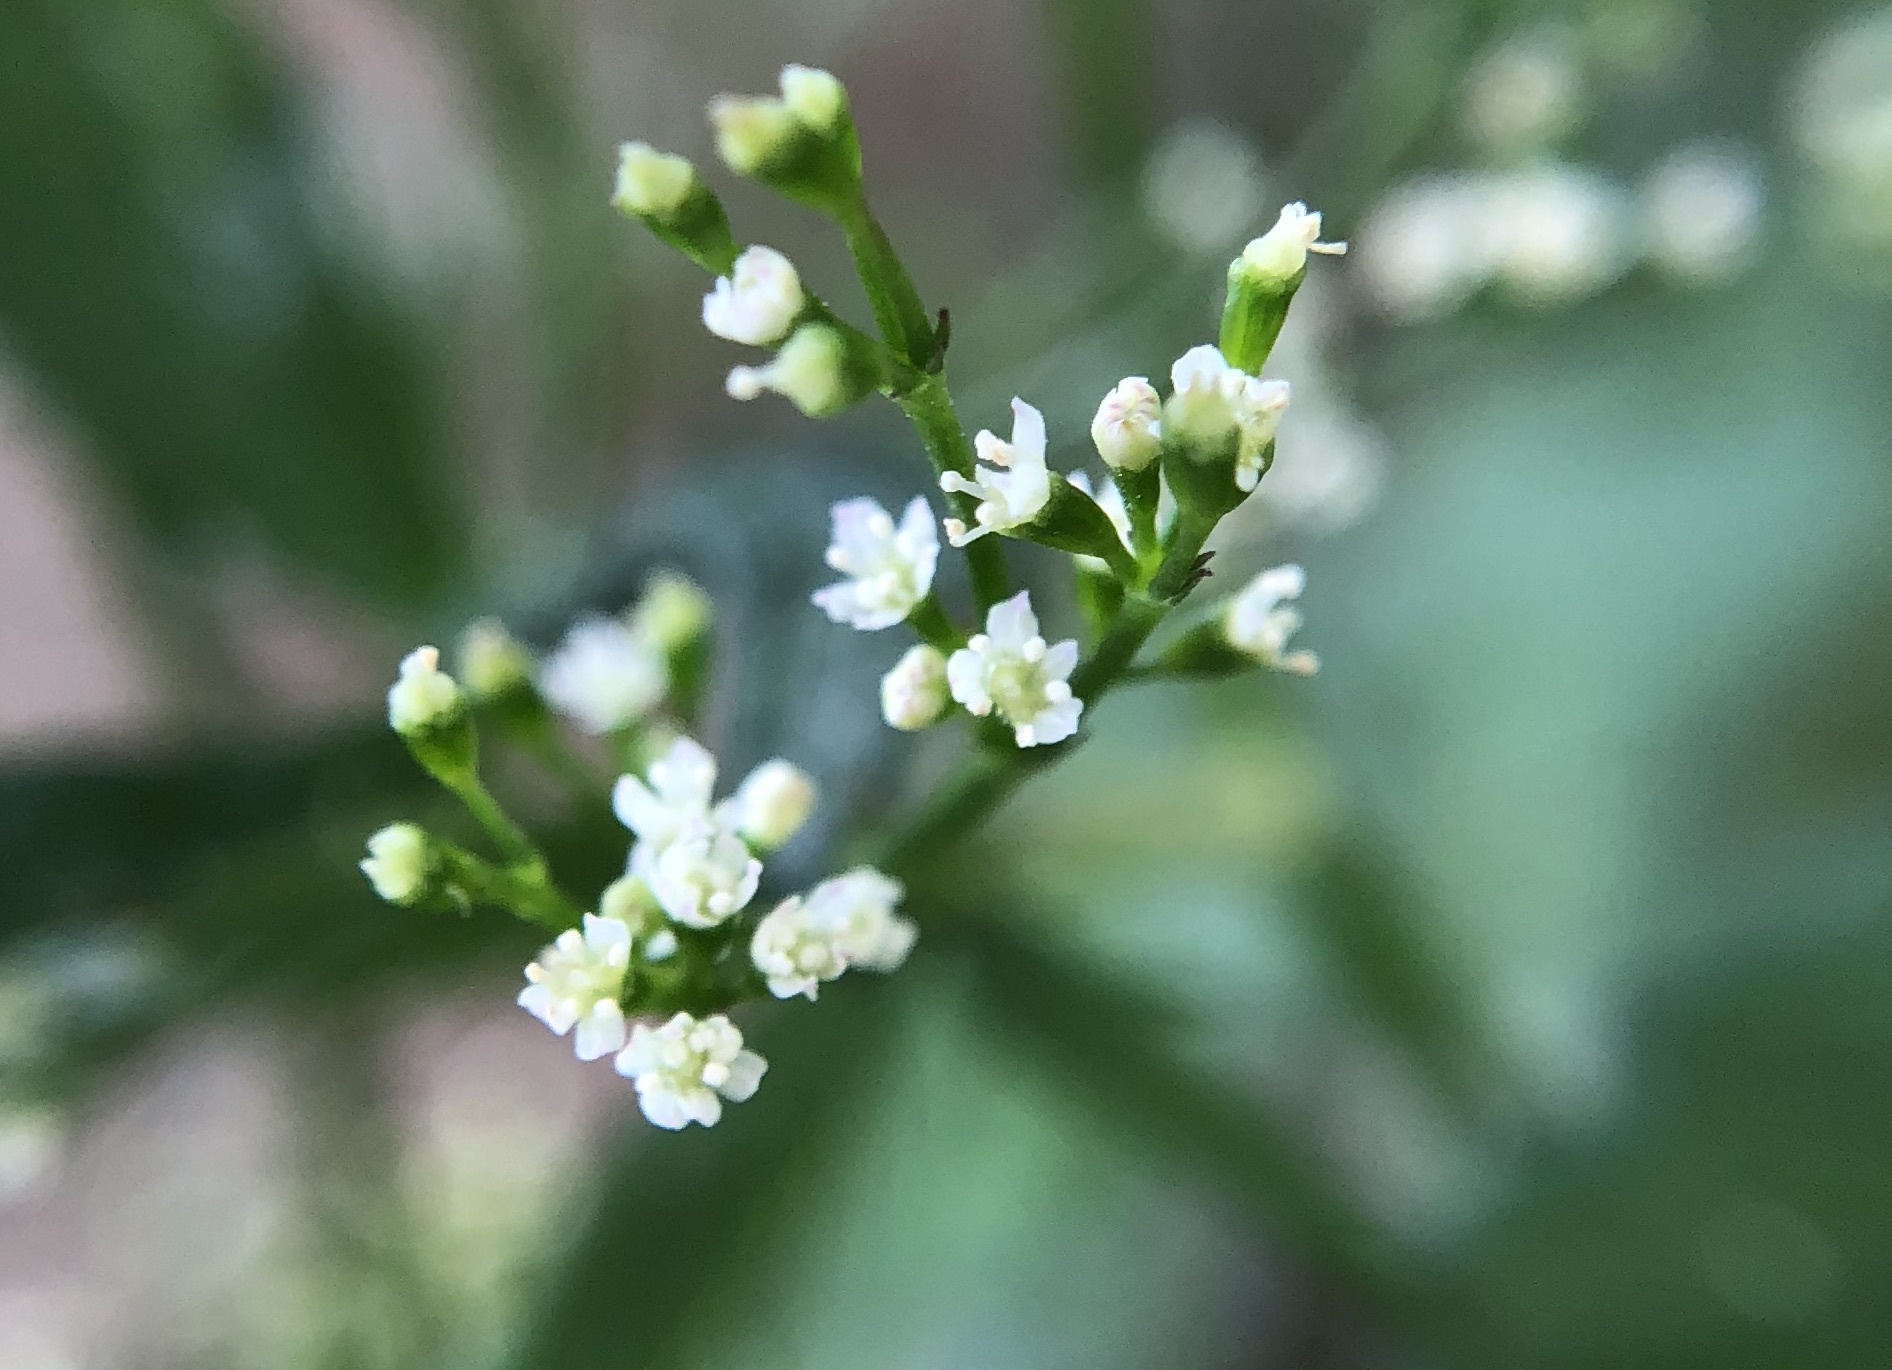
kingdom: Plantae
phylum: Tracheophyta
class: Magnoliopsida
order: Apiales
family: Apiaceae
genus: Cryptotaenia
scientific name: Cryptotaenia japonica
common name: Japanese cryptotaenia
